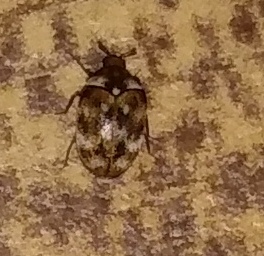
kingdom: Animalia
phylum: Arthropoda
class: Insecta
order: Coleoptera
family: Dermestidae
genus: Anthrenus
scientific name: Anthrenus verbasci
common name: Varied carpet beetle
